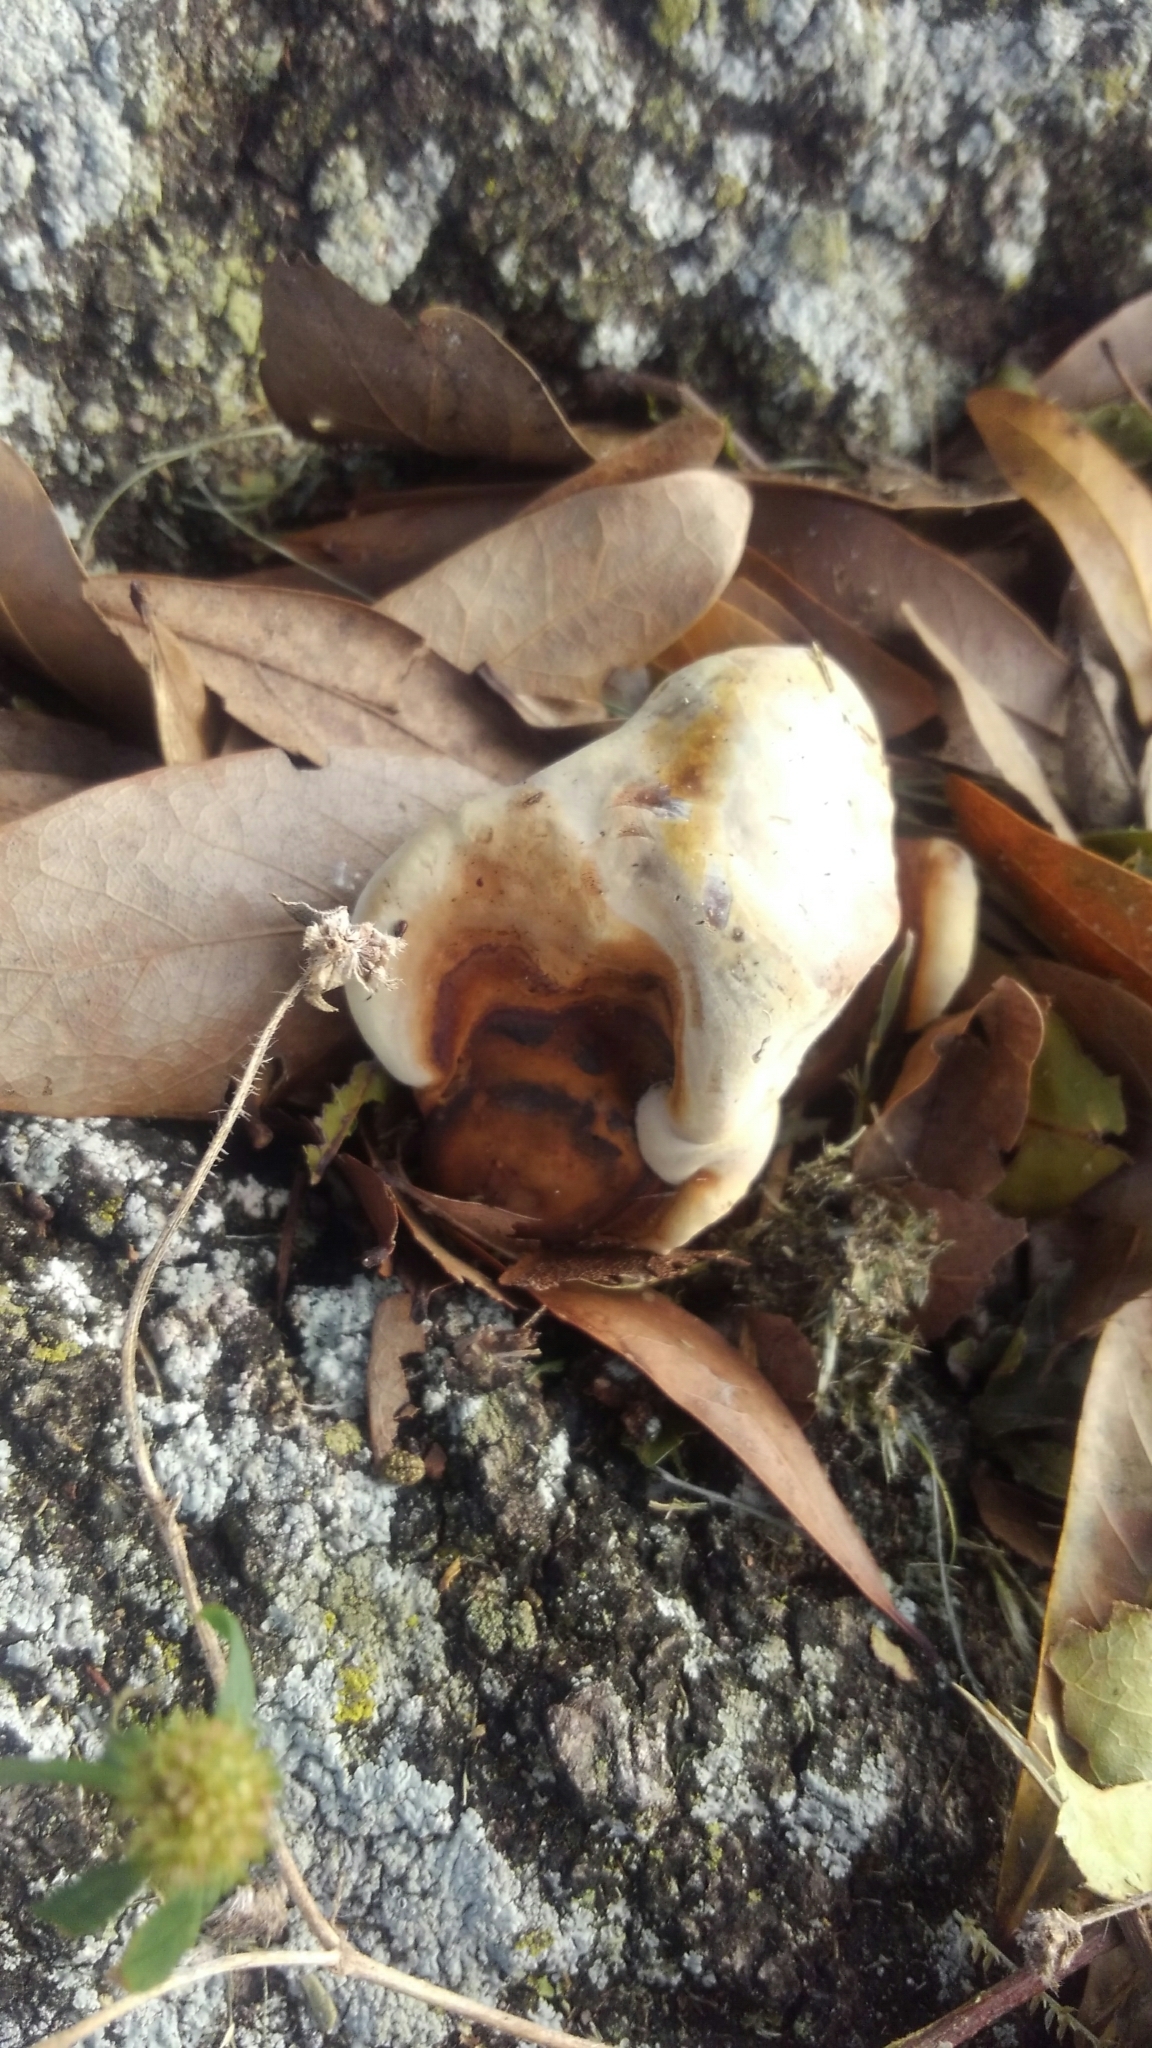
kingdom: Fungi
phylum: Basidiomycota
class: Agaricomycetes
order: Polyporales
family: Polyporaceae
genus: Ganoderma
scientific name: Ganoderma applanatum
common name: Artist's bracket
